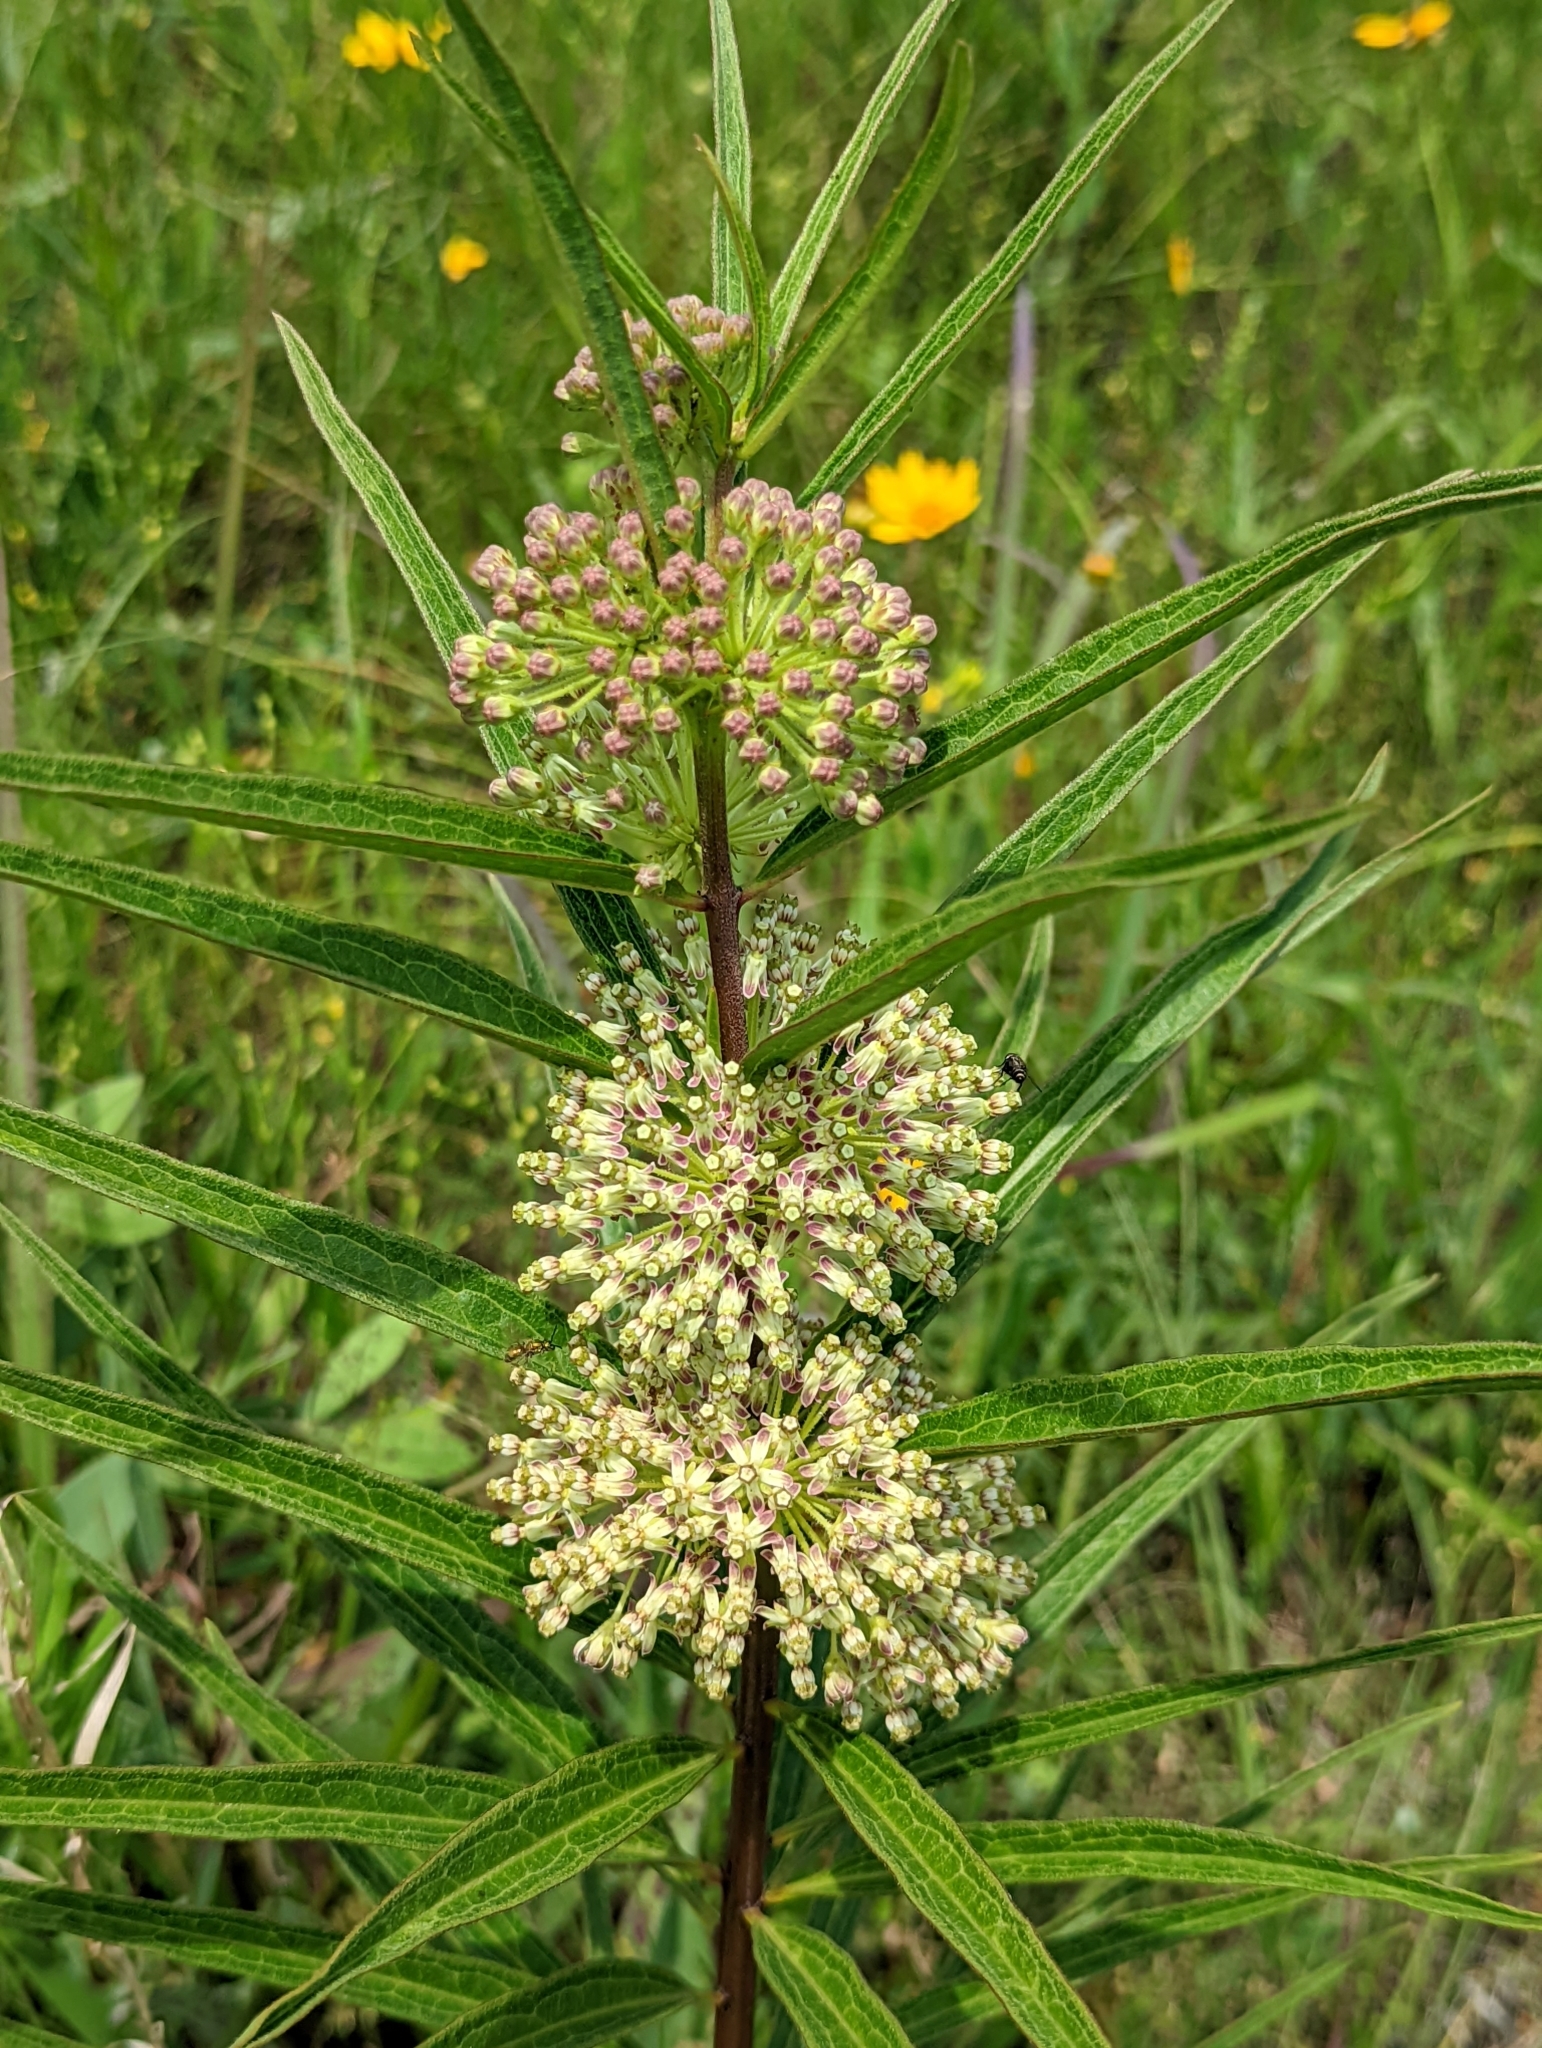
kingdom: Plantae
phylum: Tracheophyta
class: Magnoliopsida
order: Gentianales
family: Apocynaceae
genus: Asclepias
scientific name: Asclepias hirtella
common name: Prairie milkweed
